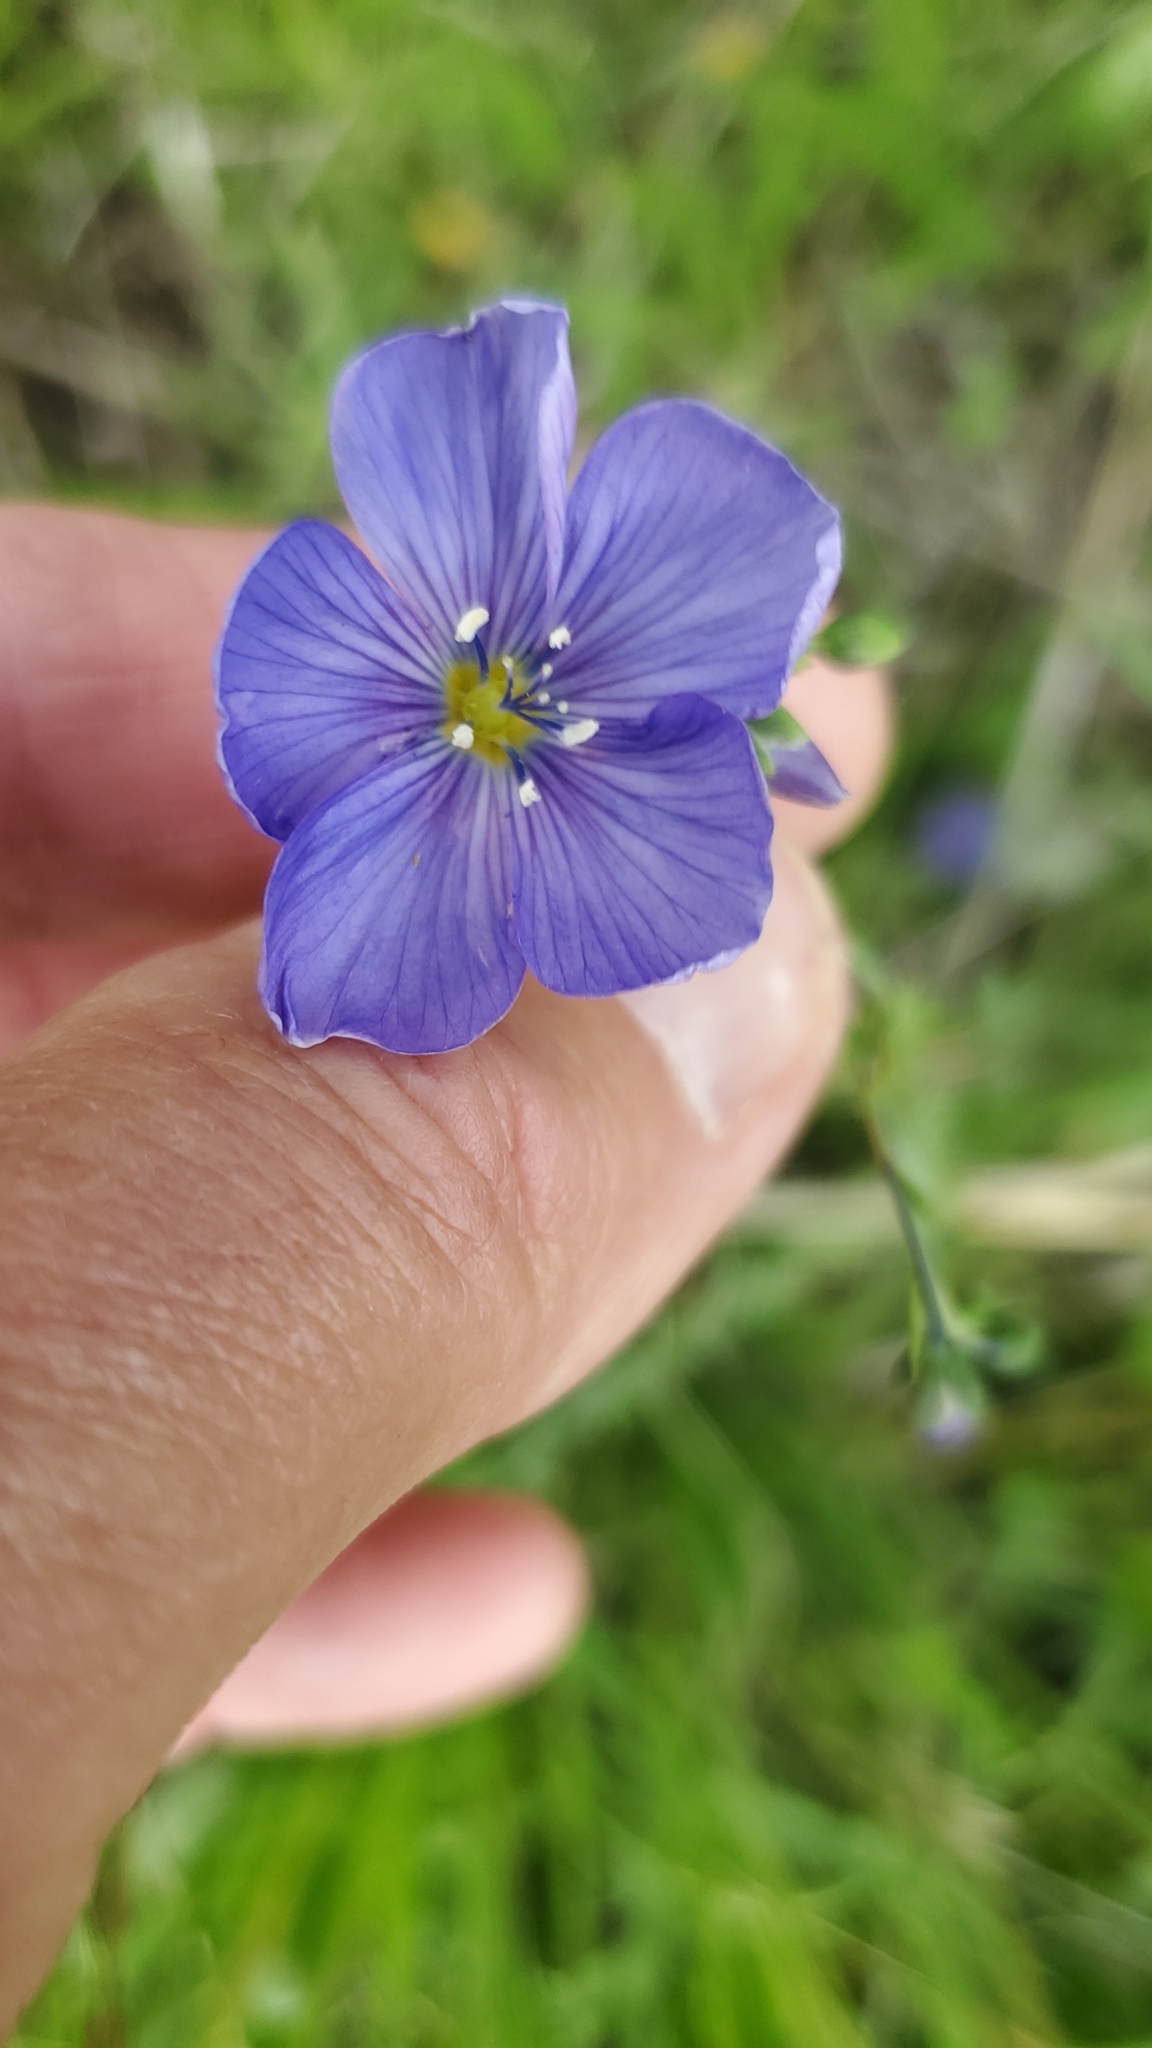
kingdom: Plantae
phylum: Tracheophyta
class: Magnoliopsida
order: Malpighiales
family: Linaceae
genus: Linum
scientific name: Linum lewisii
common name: Prairie flax
